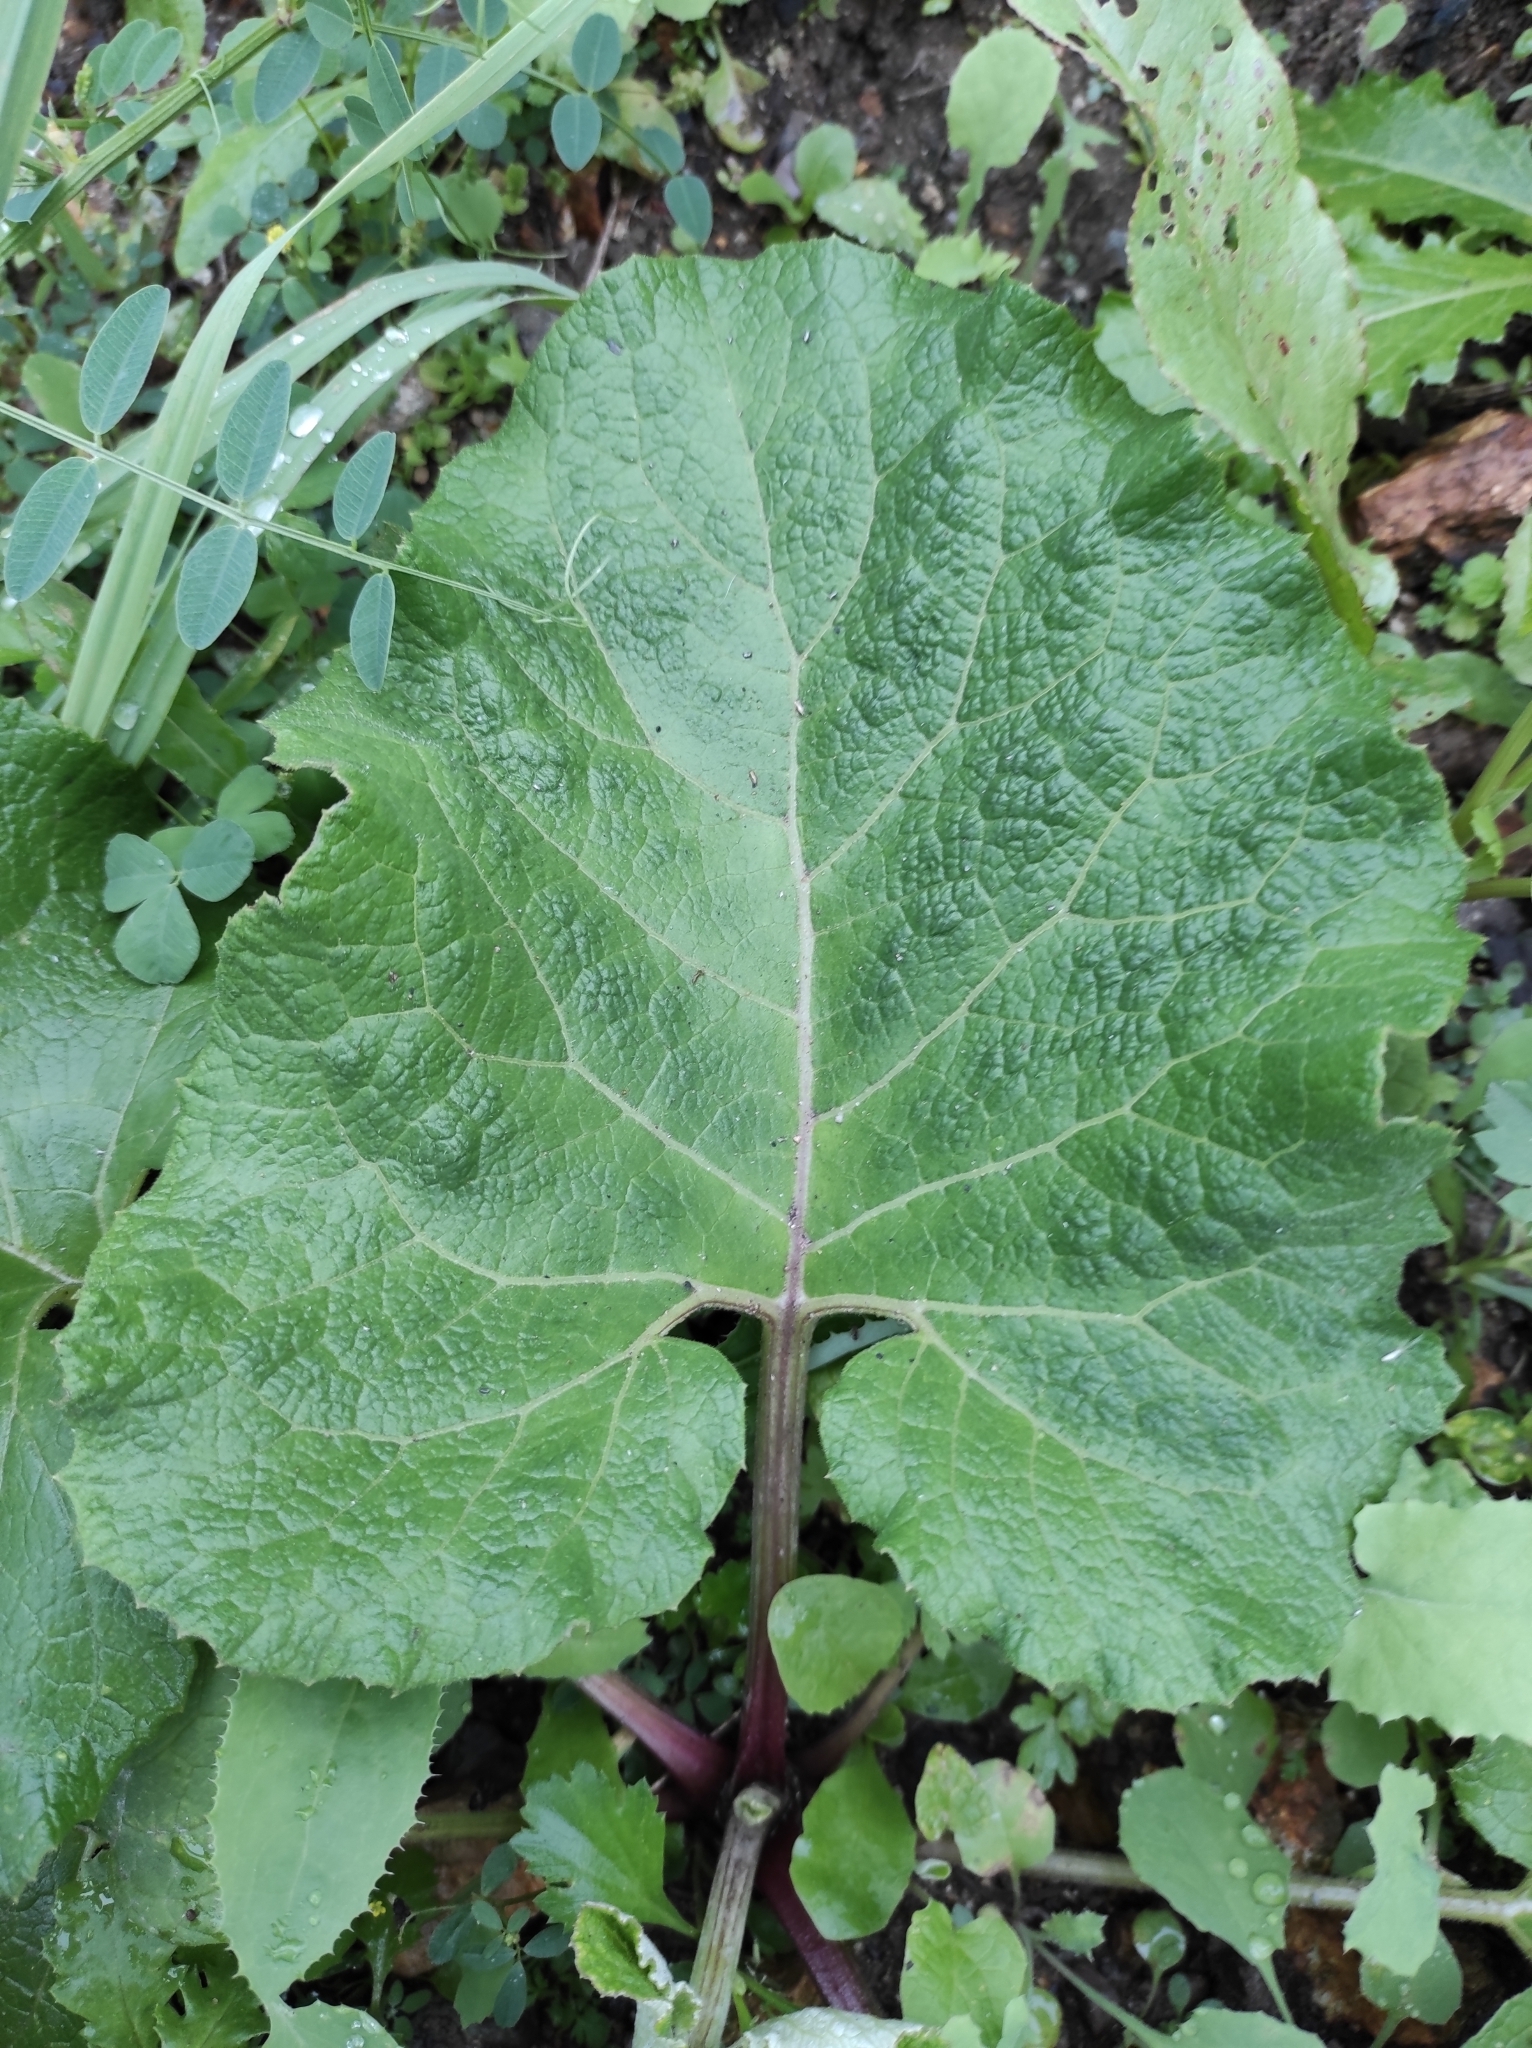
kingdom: Plantae
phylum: Tracheophyta
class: Magnoliopsida
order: Asterales
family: Asteraceae
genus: Arctium
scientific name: Arctium
